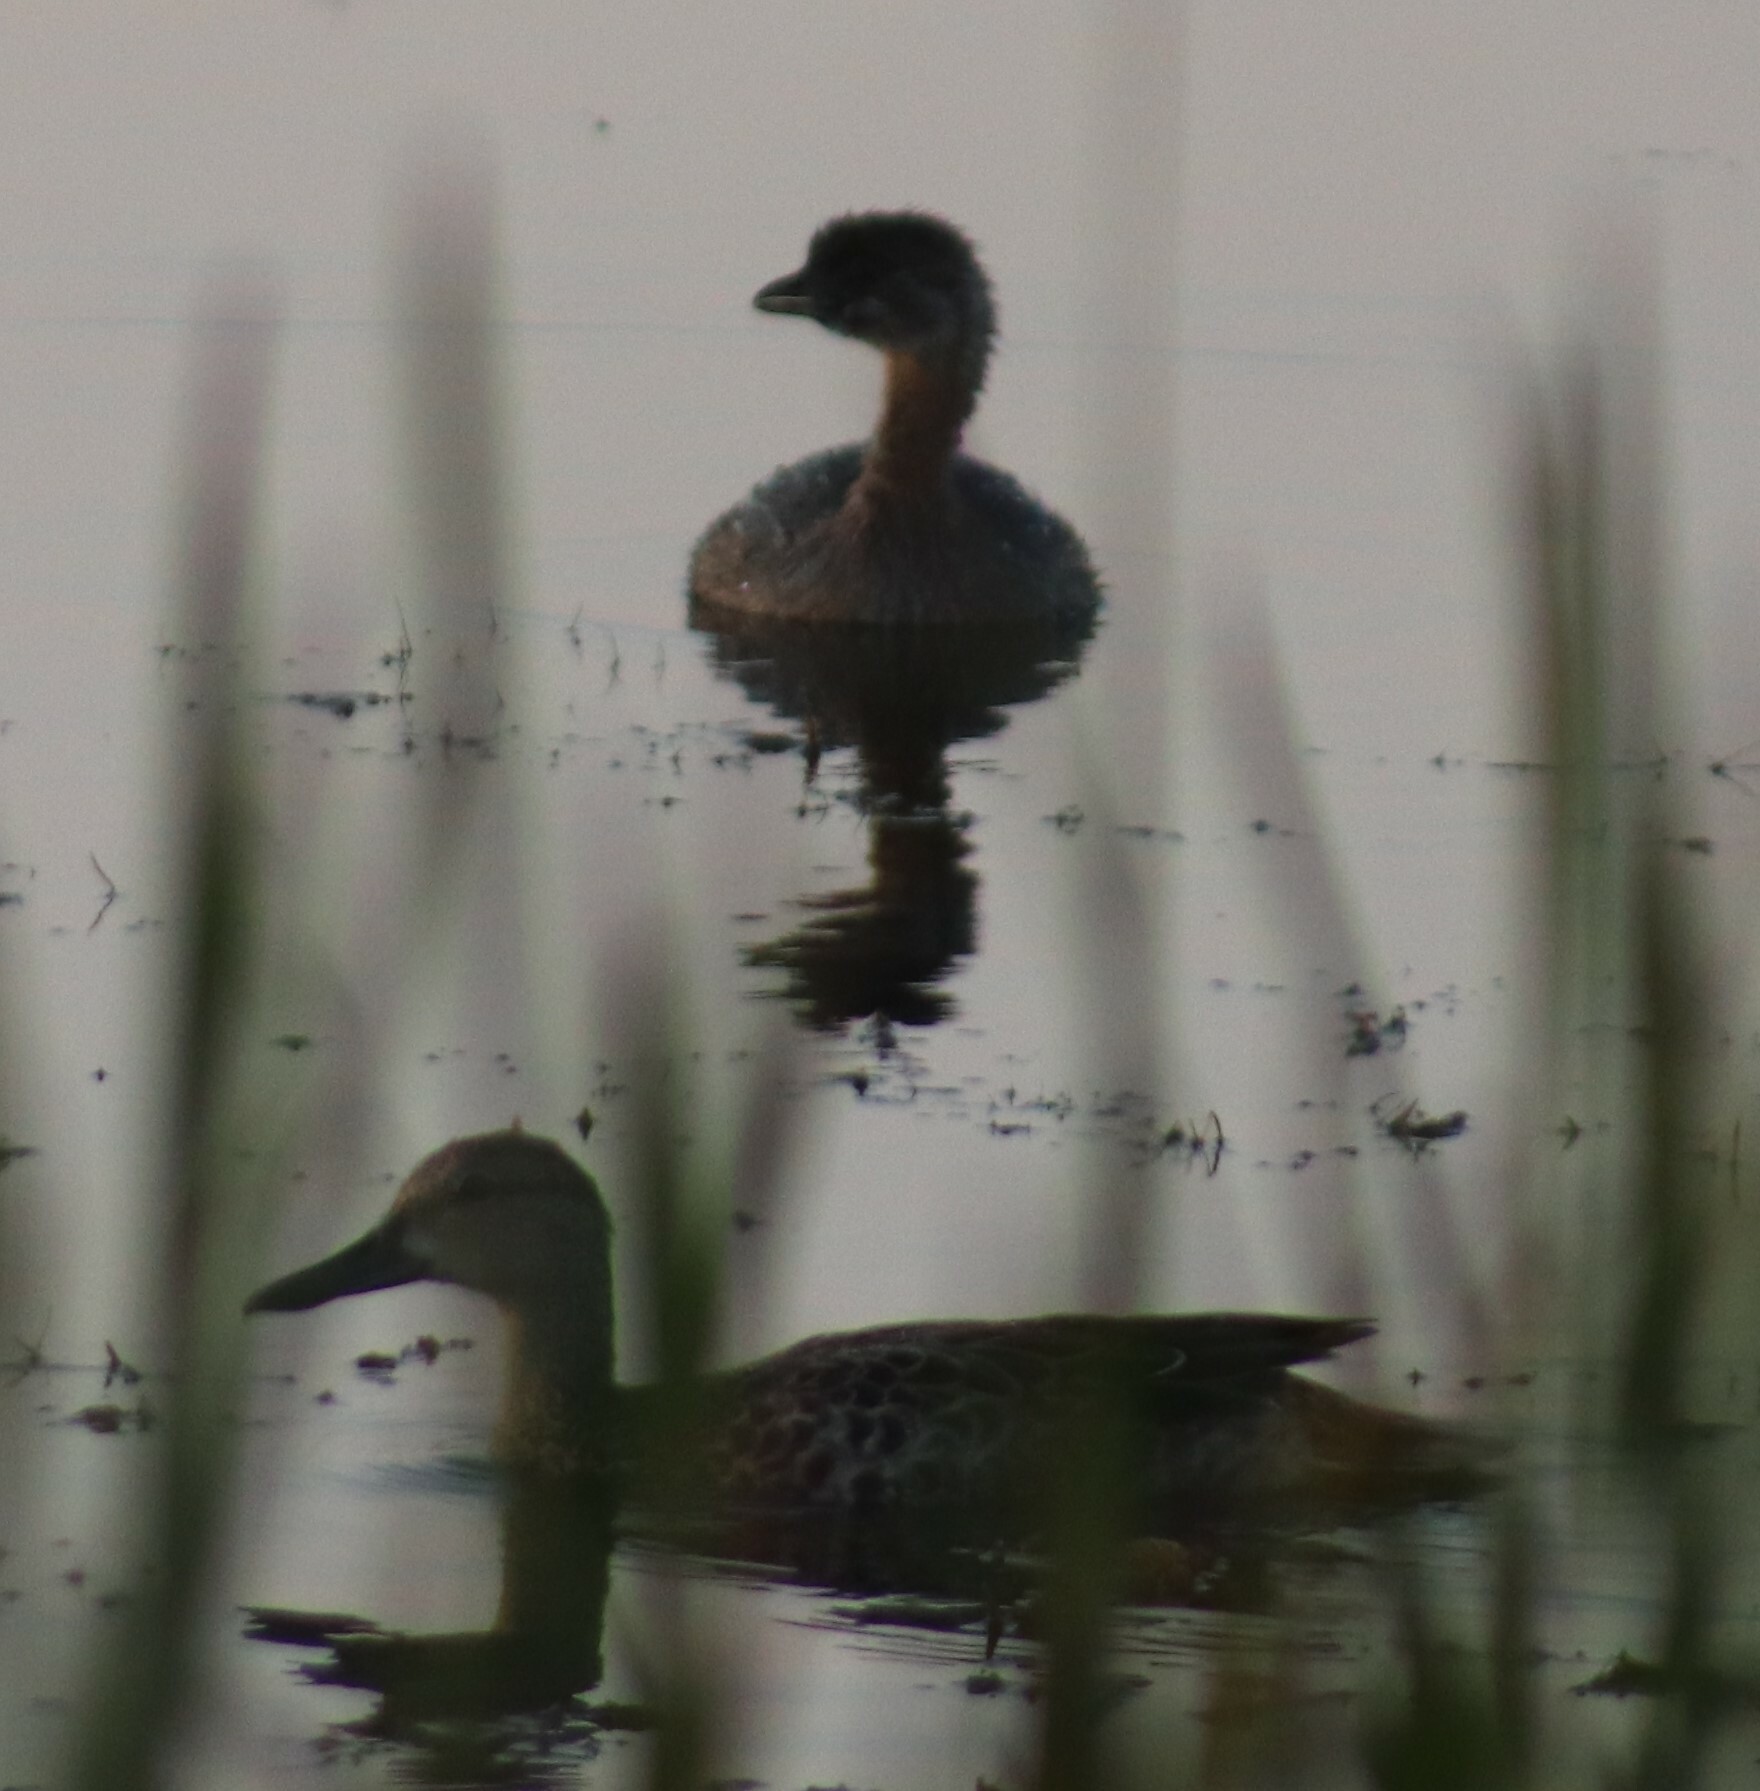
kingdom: Animalia
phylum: Chordata
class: Aves
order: Podicipediformes
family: Podicipedidae
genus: Podilymbus
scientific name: Podilymbus podiceps
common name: Pied-billed grebe
